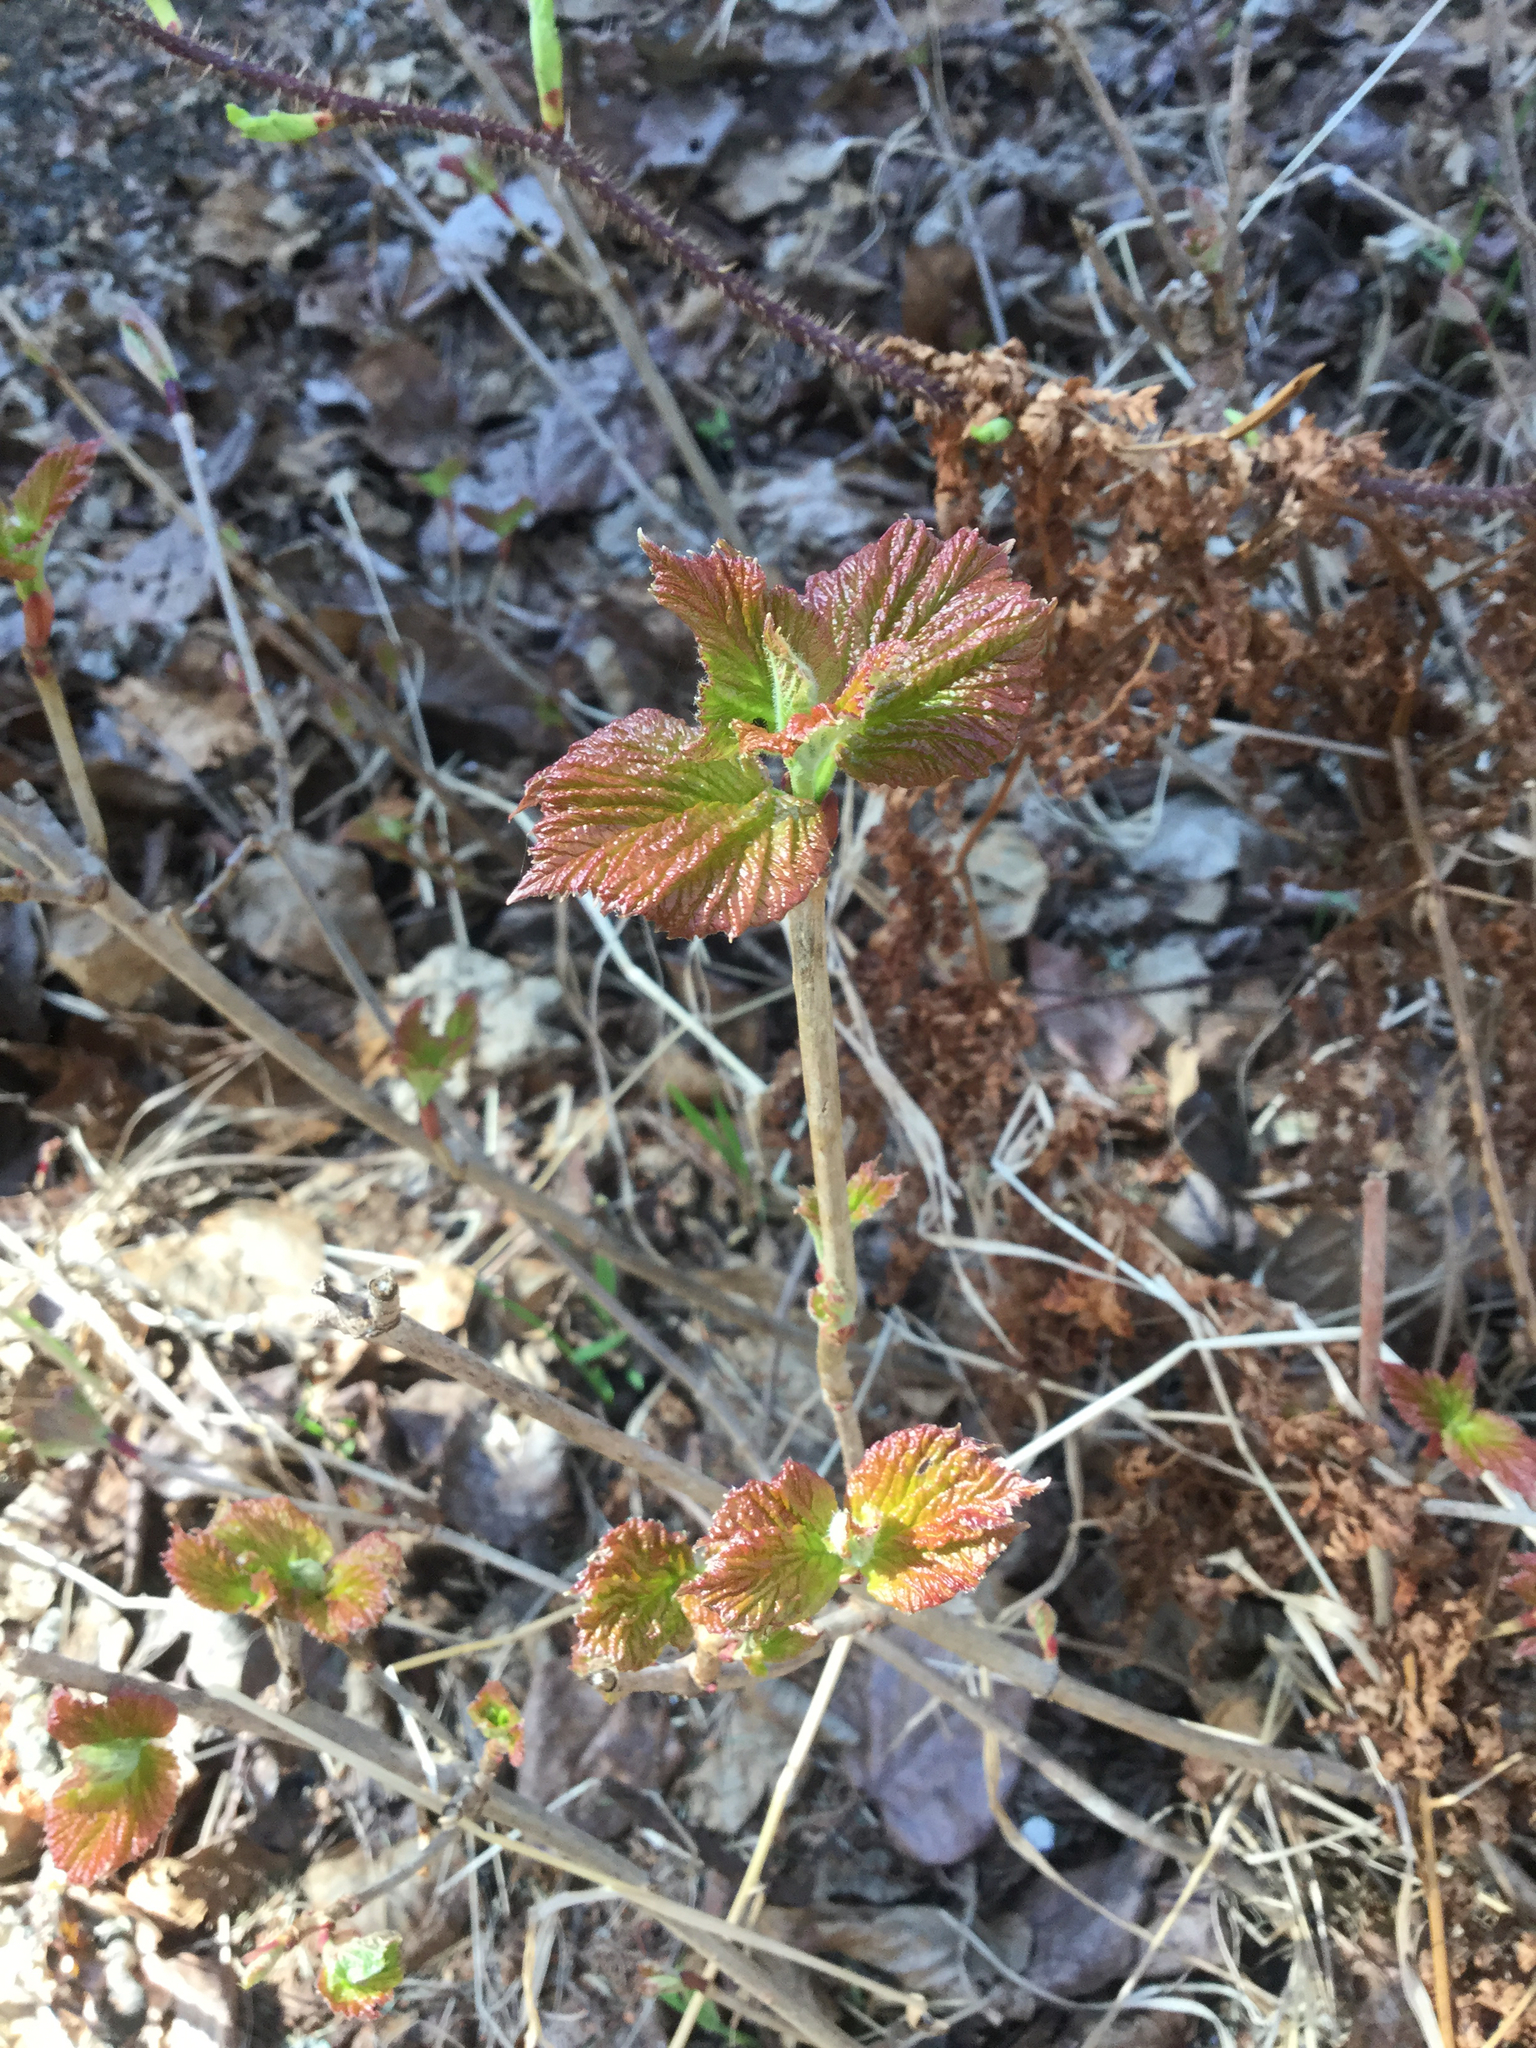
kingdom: Plantae
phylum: Tracheophyta
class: Magnoliopsida
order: Dipsacales
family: Viburnaceae
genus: Viburnum
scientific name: Viburnum edule
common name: Mooseberry
